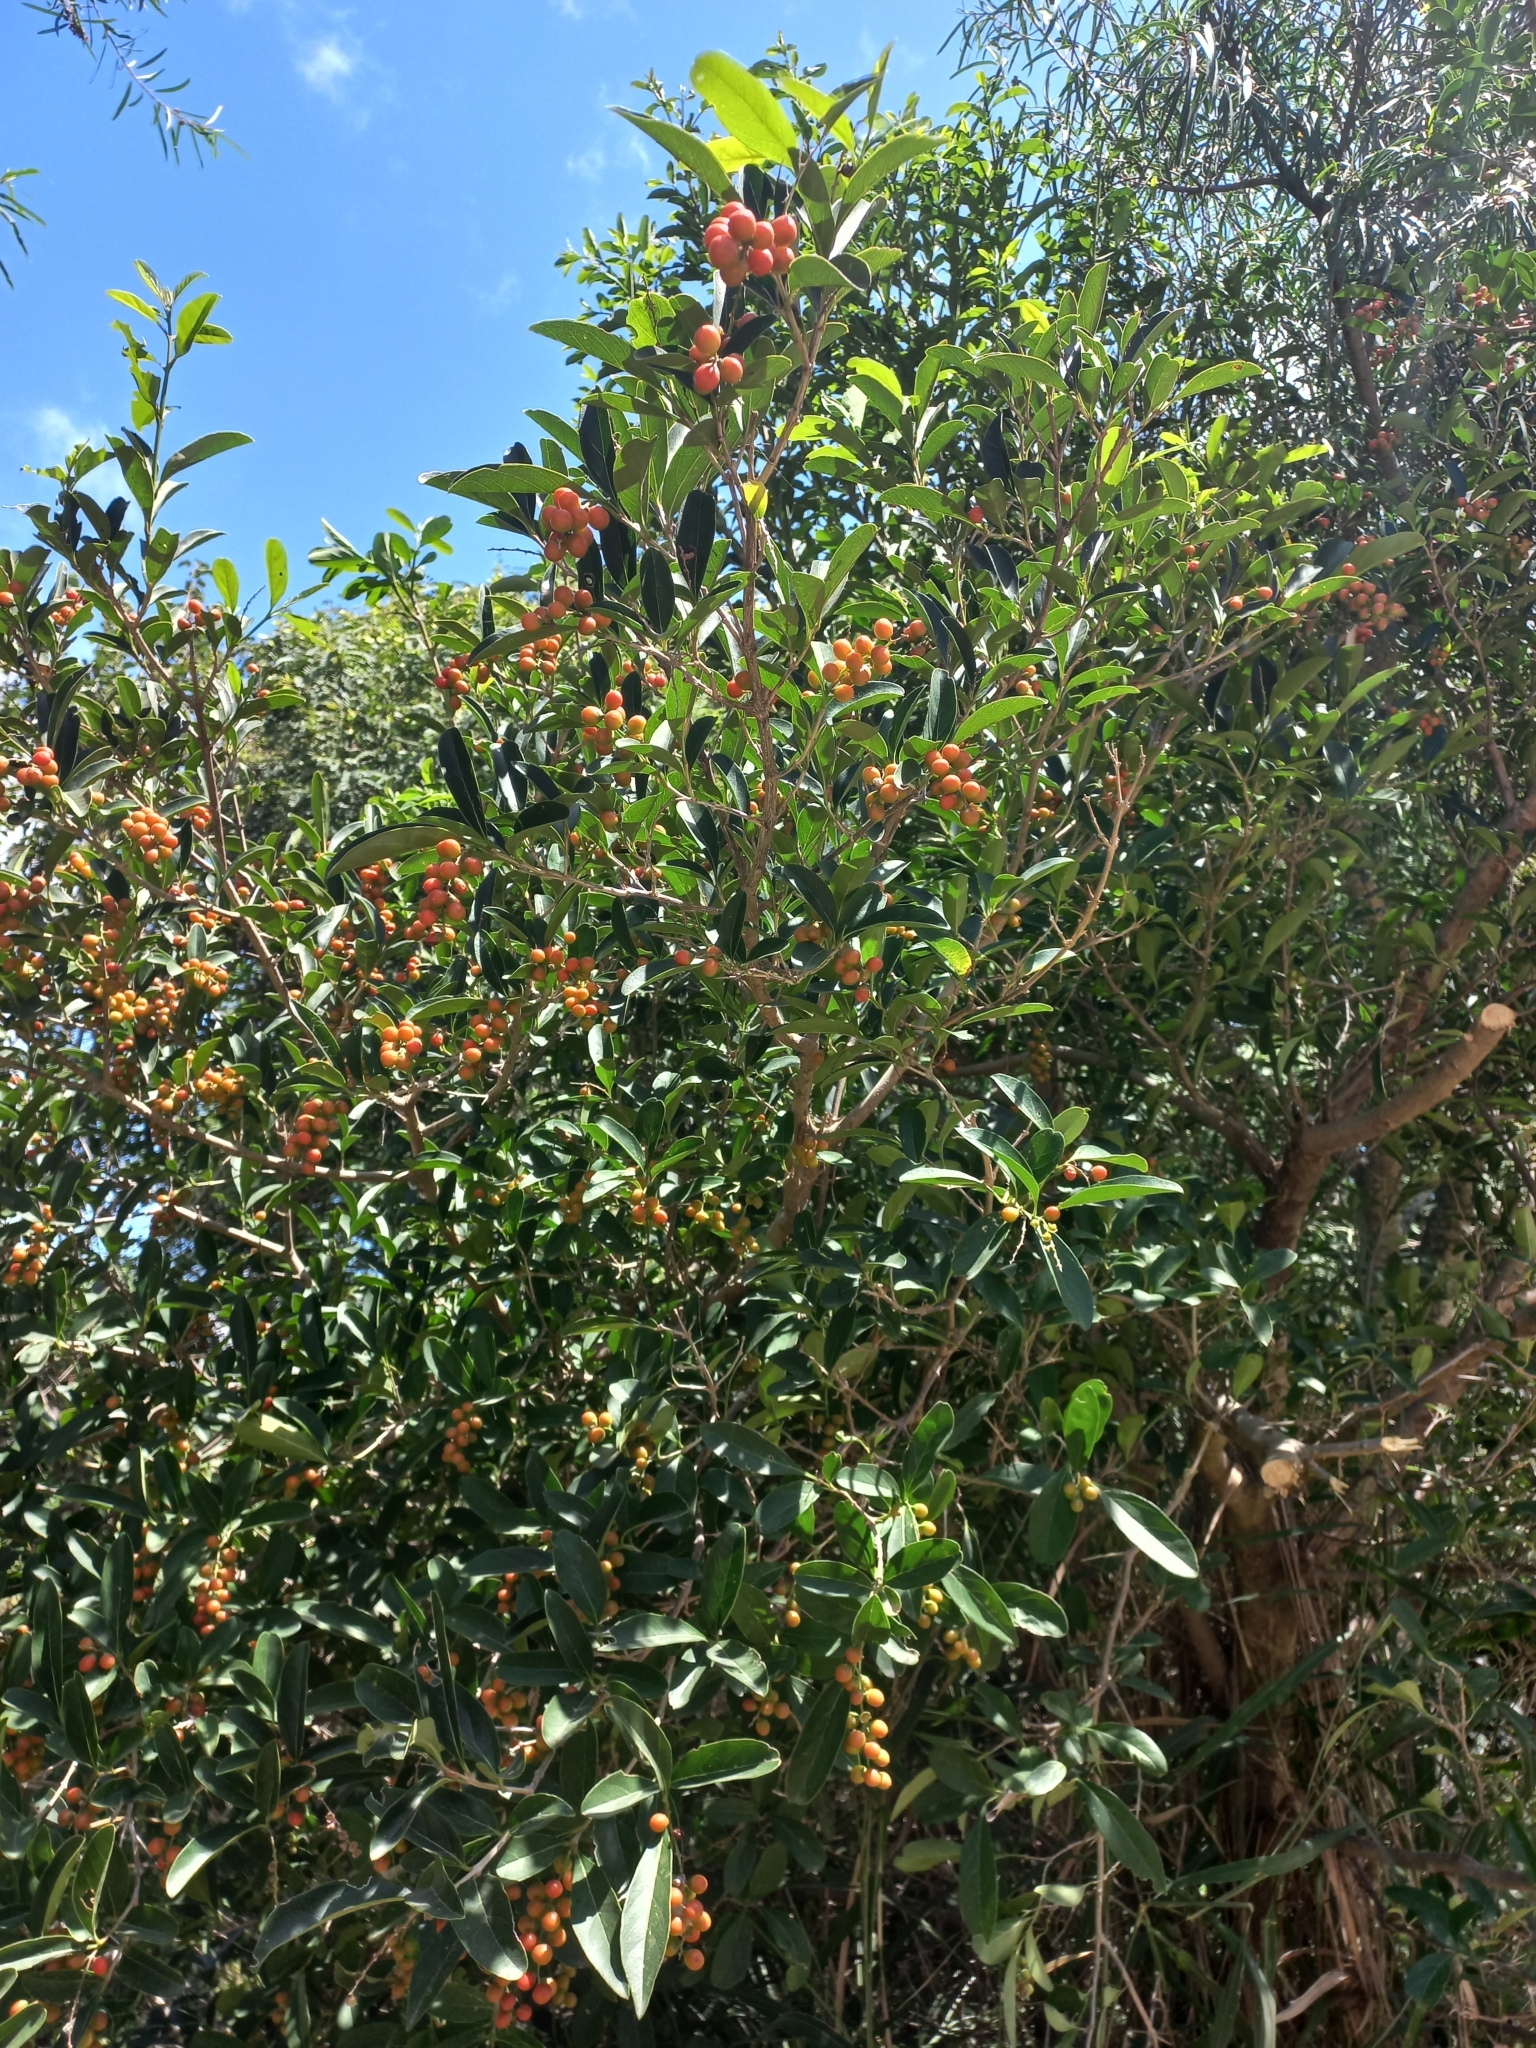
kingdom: Plantae
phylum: Tracheophyta
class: Magnoliopsida
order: Lamiales
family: Verbenaceae
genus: Citharexylum
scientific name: Citharexylum montevidense
